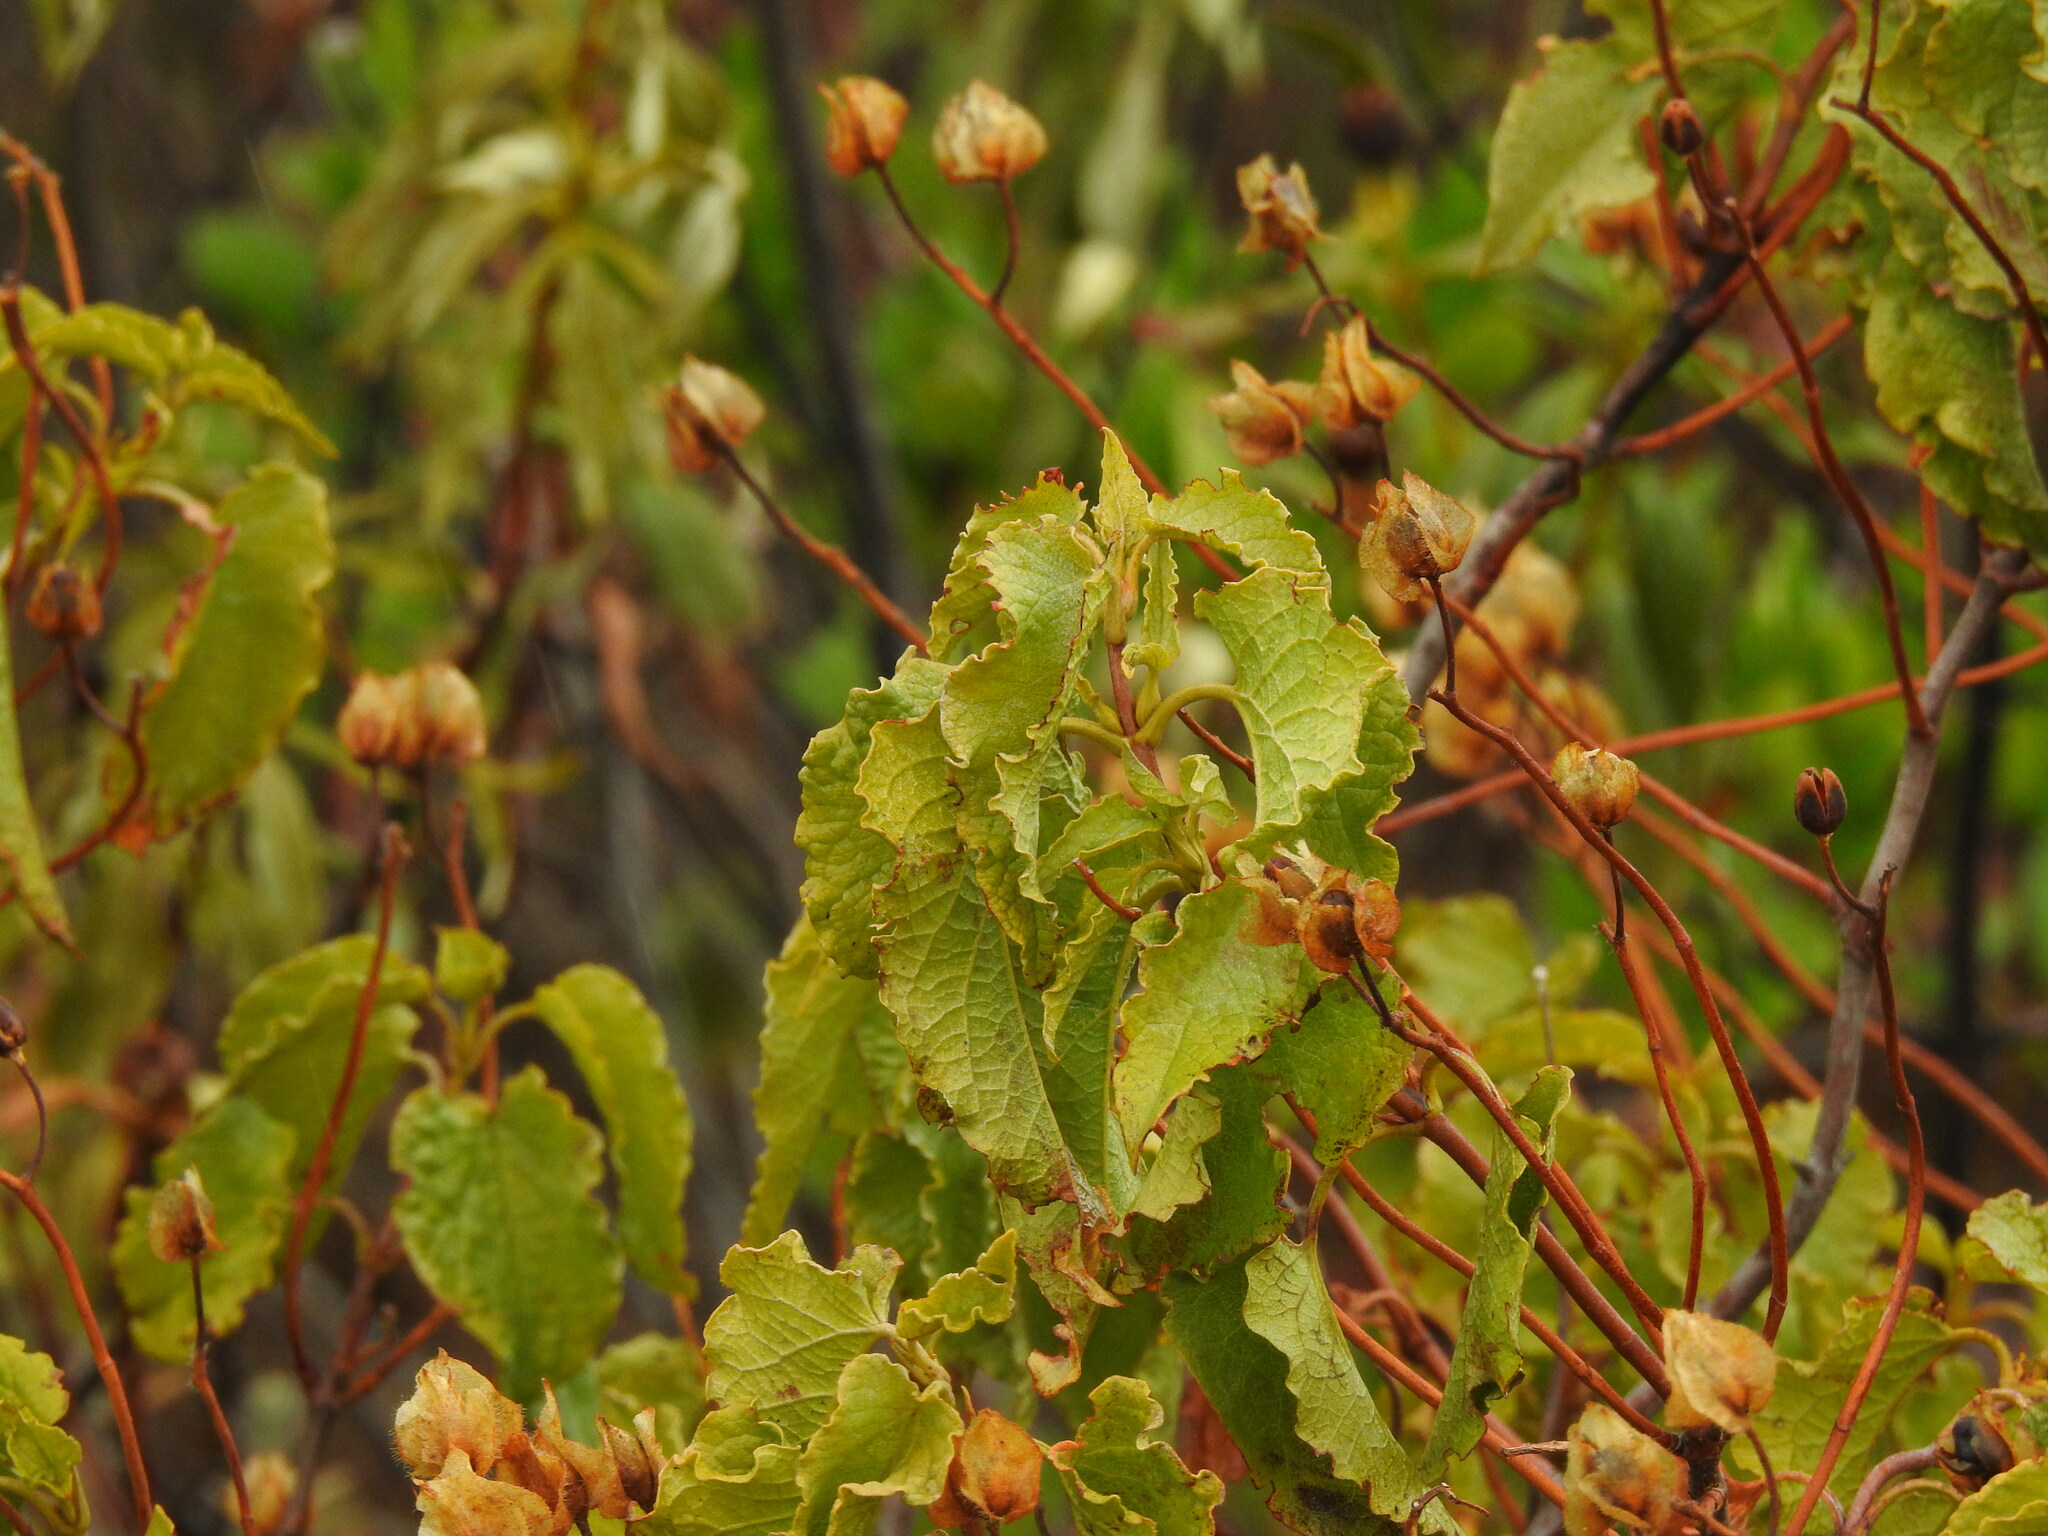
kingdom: Plantae
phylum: Tracheophyta
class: Magnoliopsida
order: Malvales
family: Cistaceae
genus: Cistus
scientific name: Cistus populifolius
